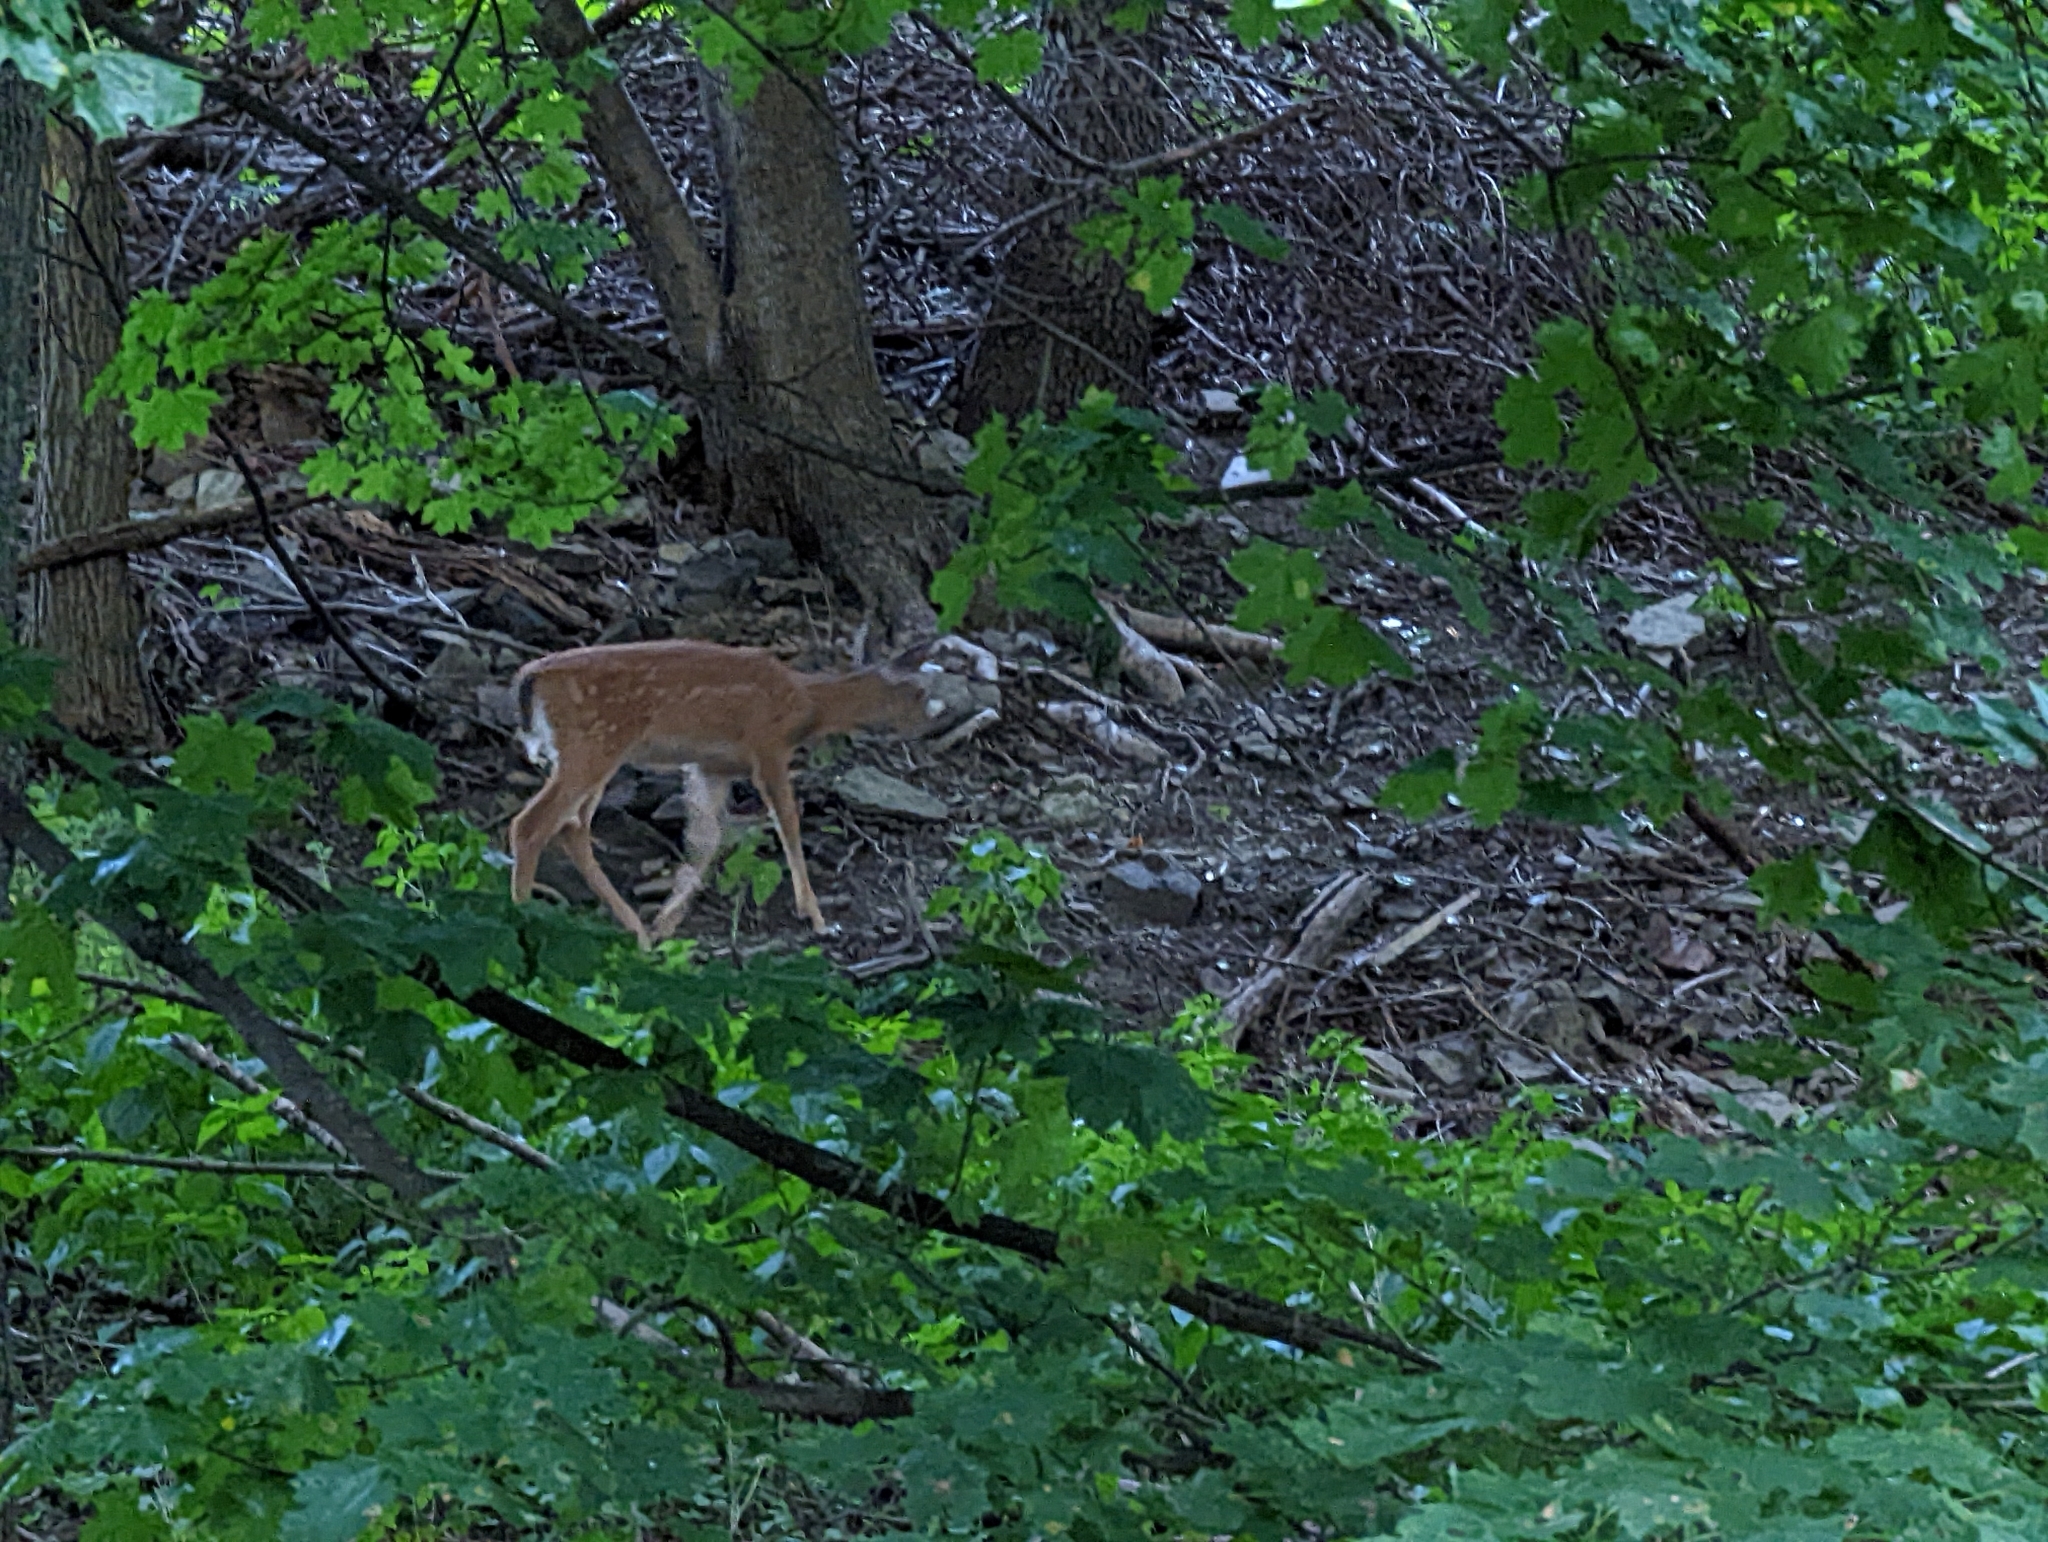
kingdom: Animalia
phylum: Chordata
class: Mammalia
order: Artiodactyla
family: Cervidae
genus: Odocoileus
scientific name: Odocoileus virginianus
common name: White-tailed deer
